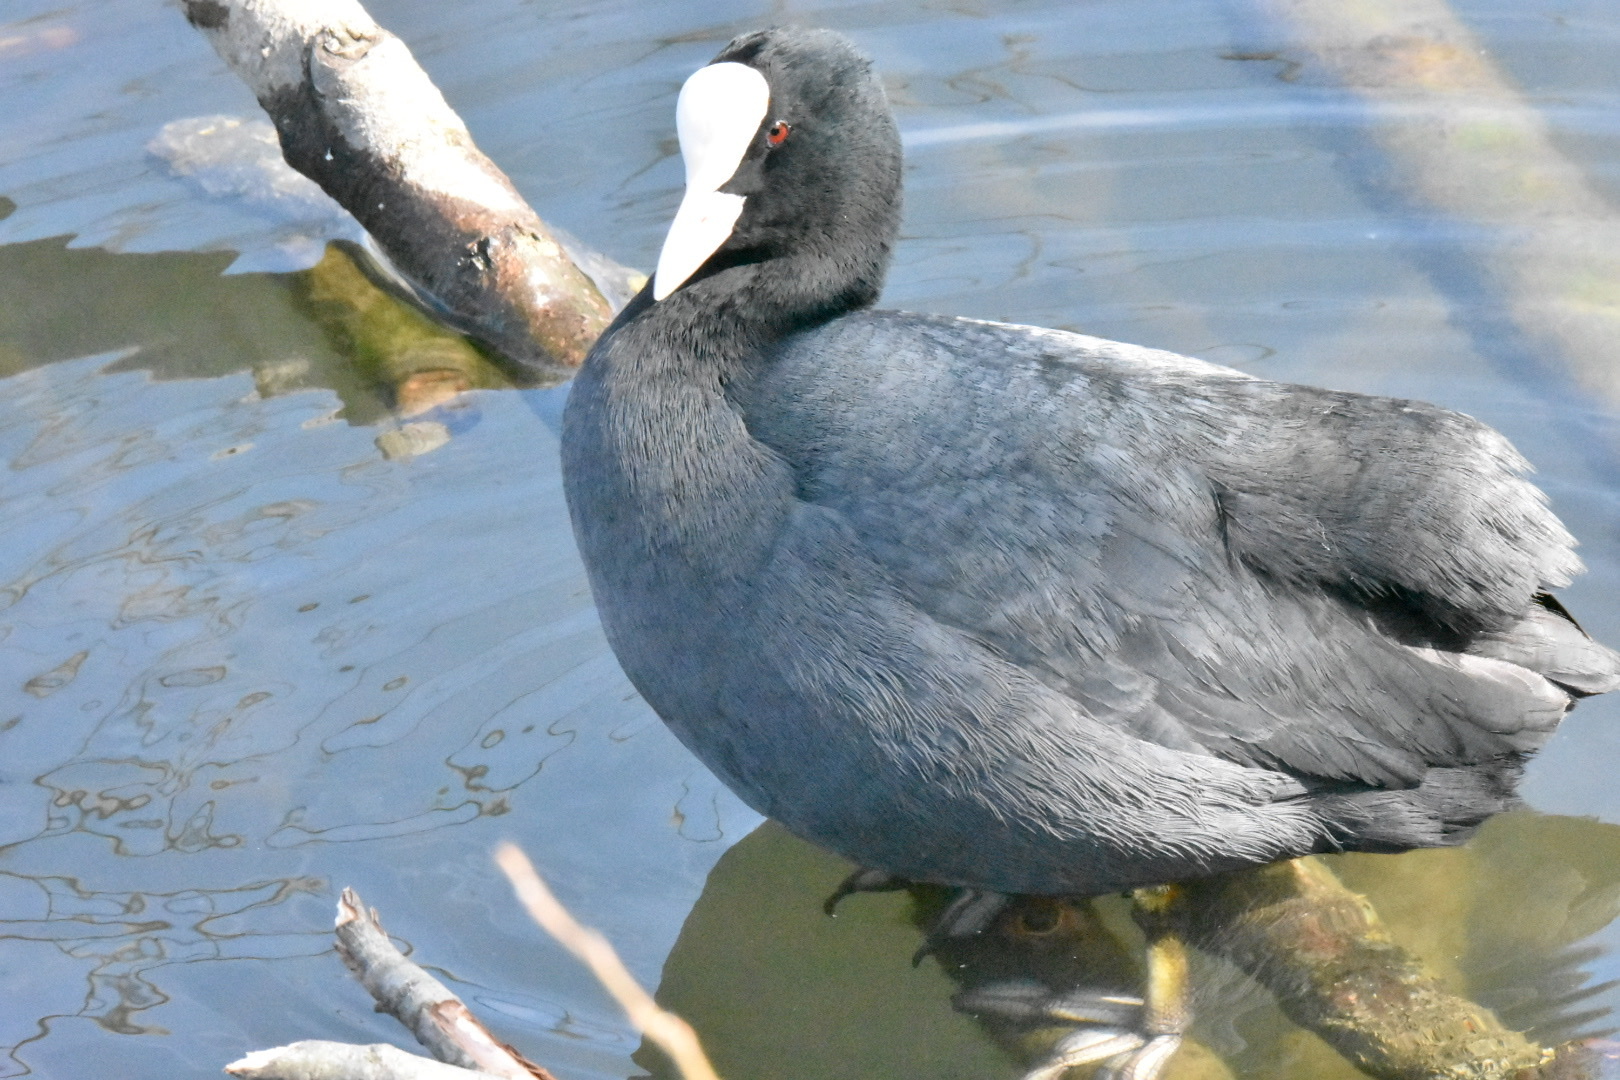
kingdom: Animalia
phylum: Chordata
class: Aves
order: Gruiformes
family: Rallidae
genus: Fulica
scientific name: Fulica atra
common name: Eurasian coot
